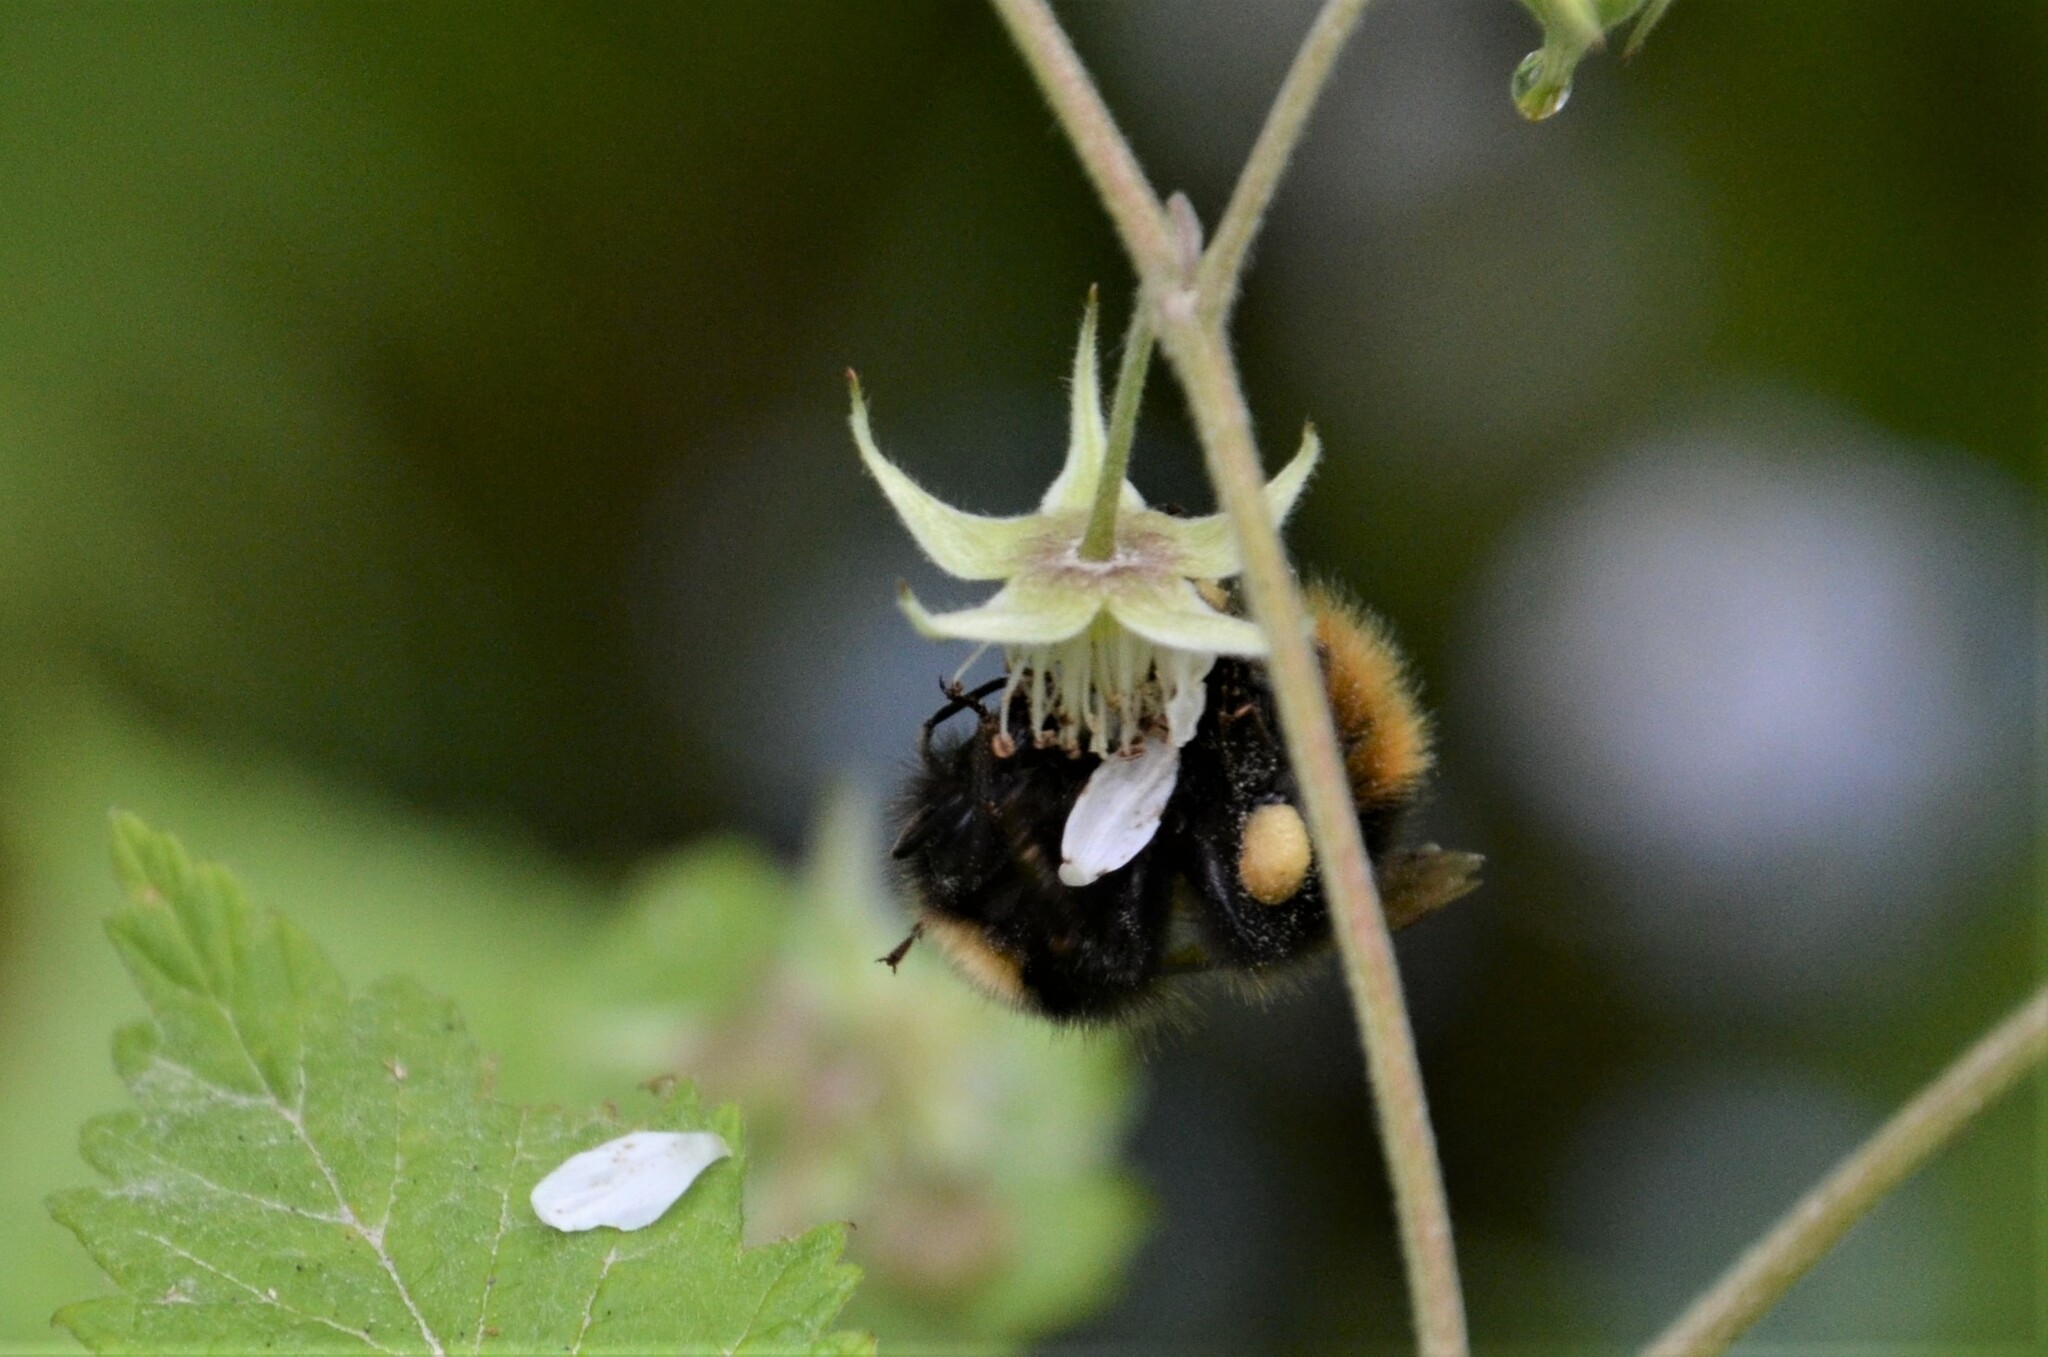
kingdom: Animalia
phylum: Arthropoda
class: Insecta
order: Hymenoptera
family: Apidae
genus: Bombus
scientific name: Bombus pratorum
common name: Early humble-bee
